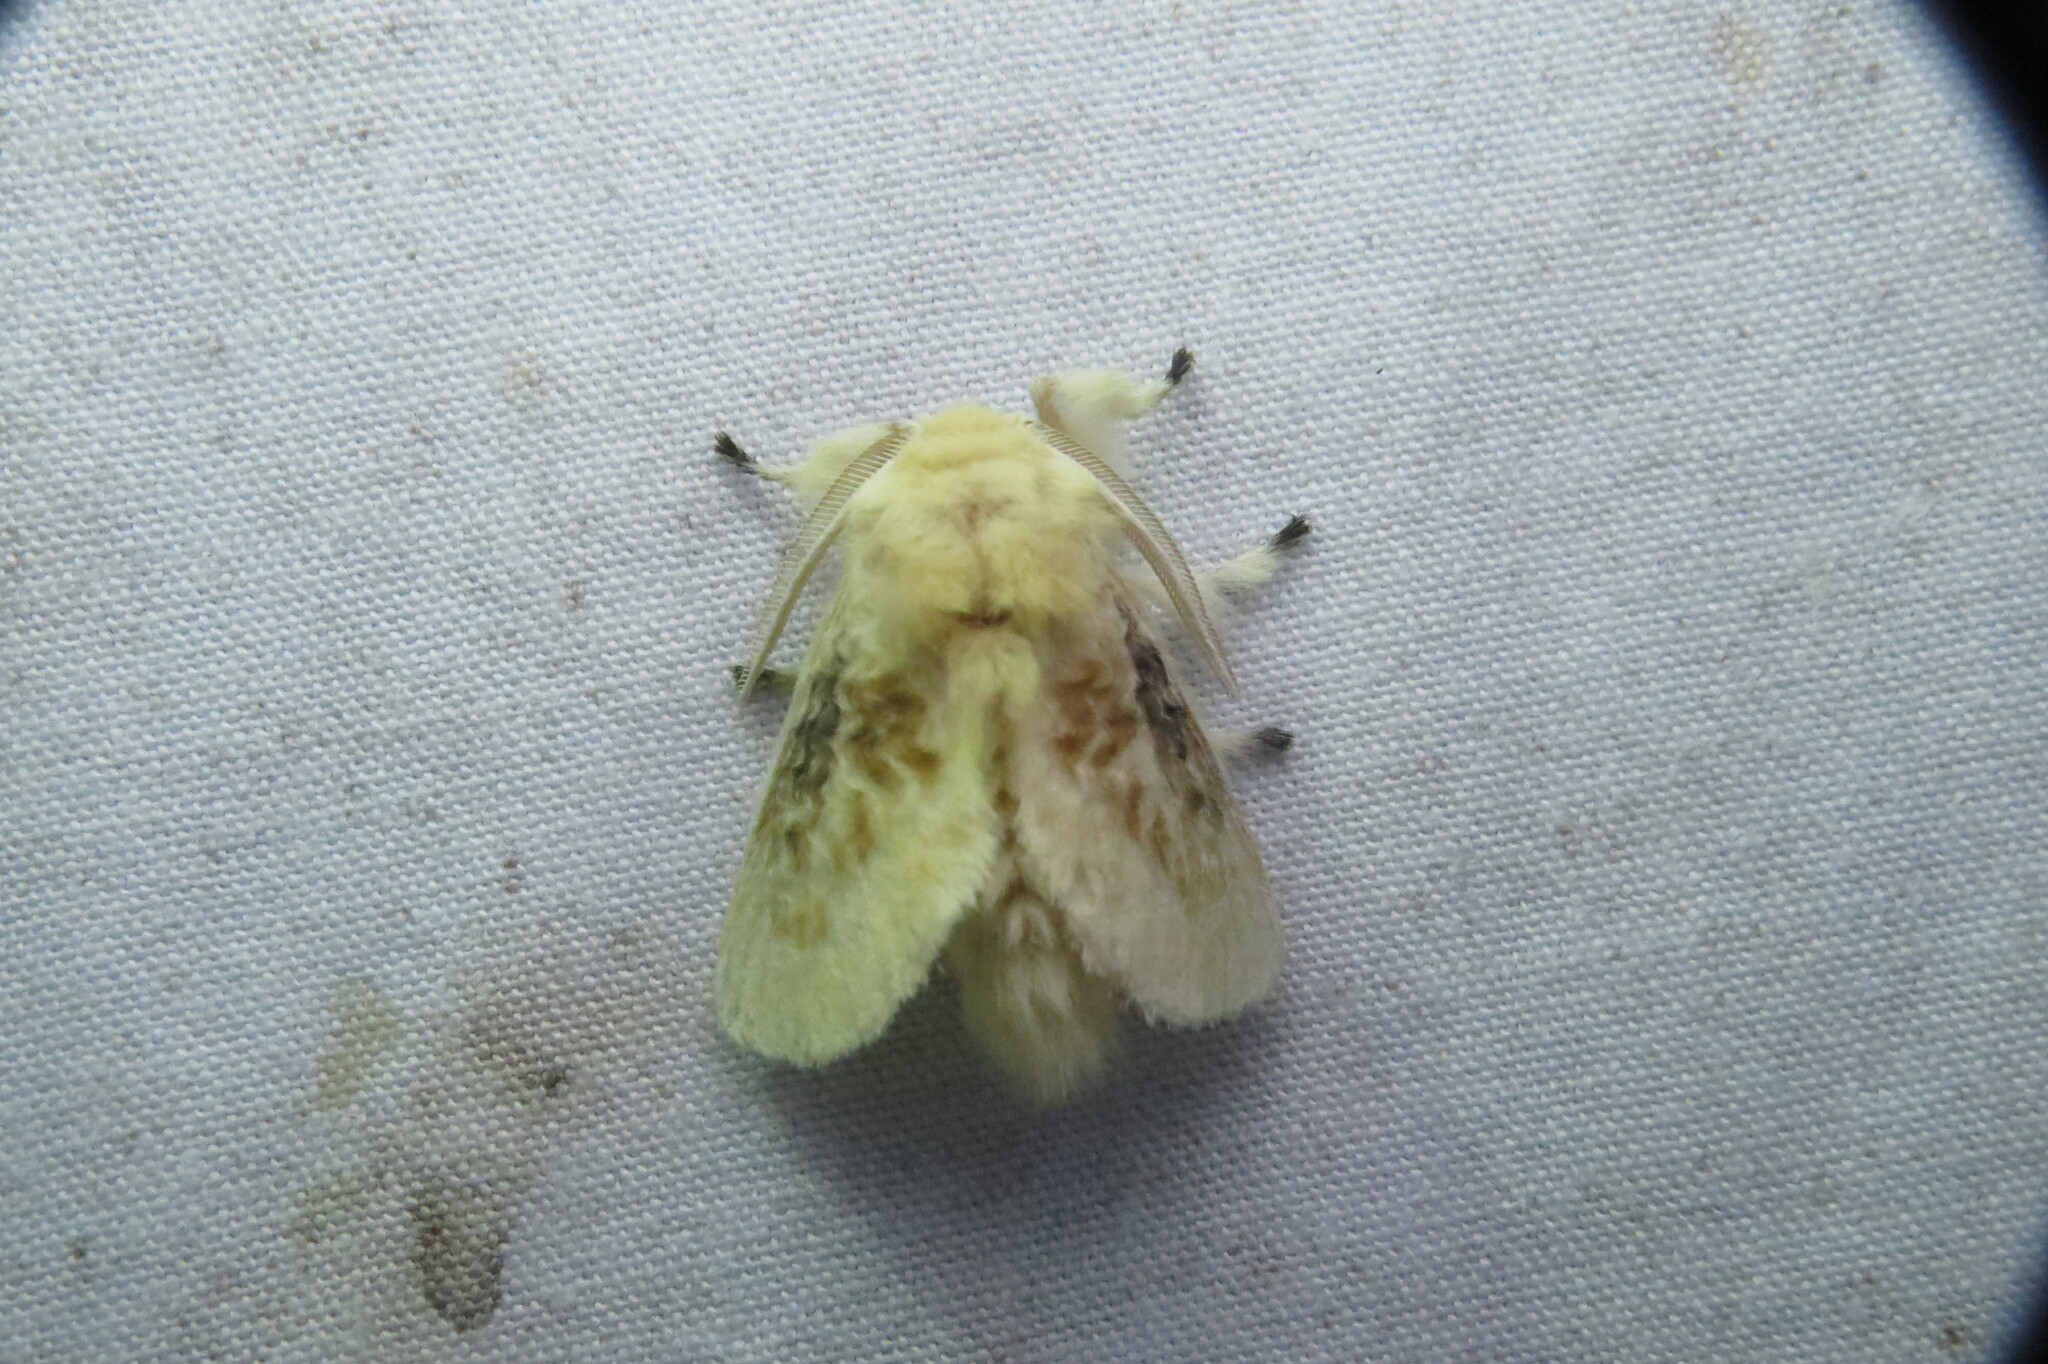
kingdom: Animalia
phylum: Arthropoda
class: Insecta
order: Lepidoptera
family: Megalopygidae
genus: Megalopyge
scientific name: Megalopyge crispata
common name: Black-waved flannel moth
